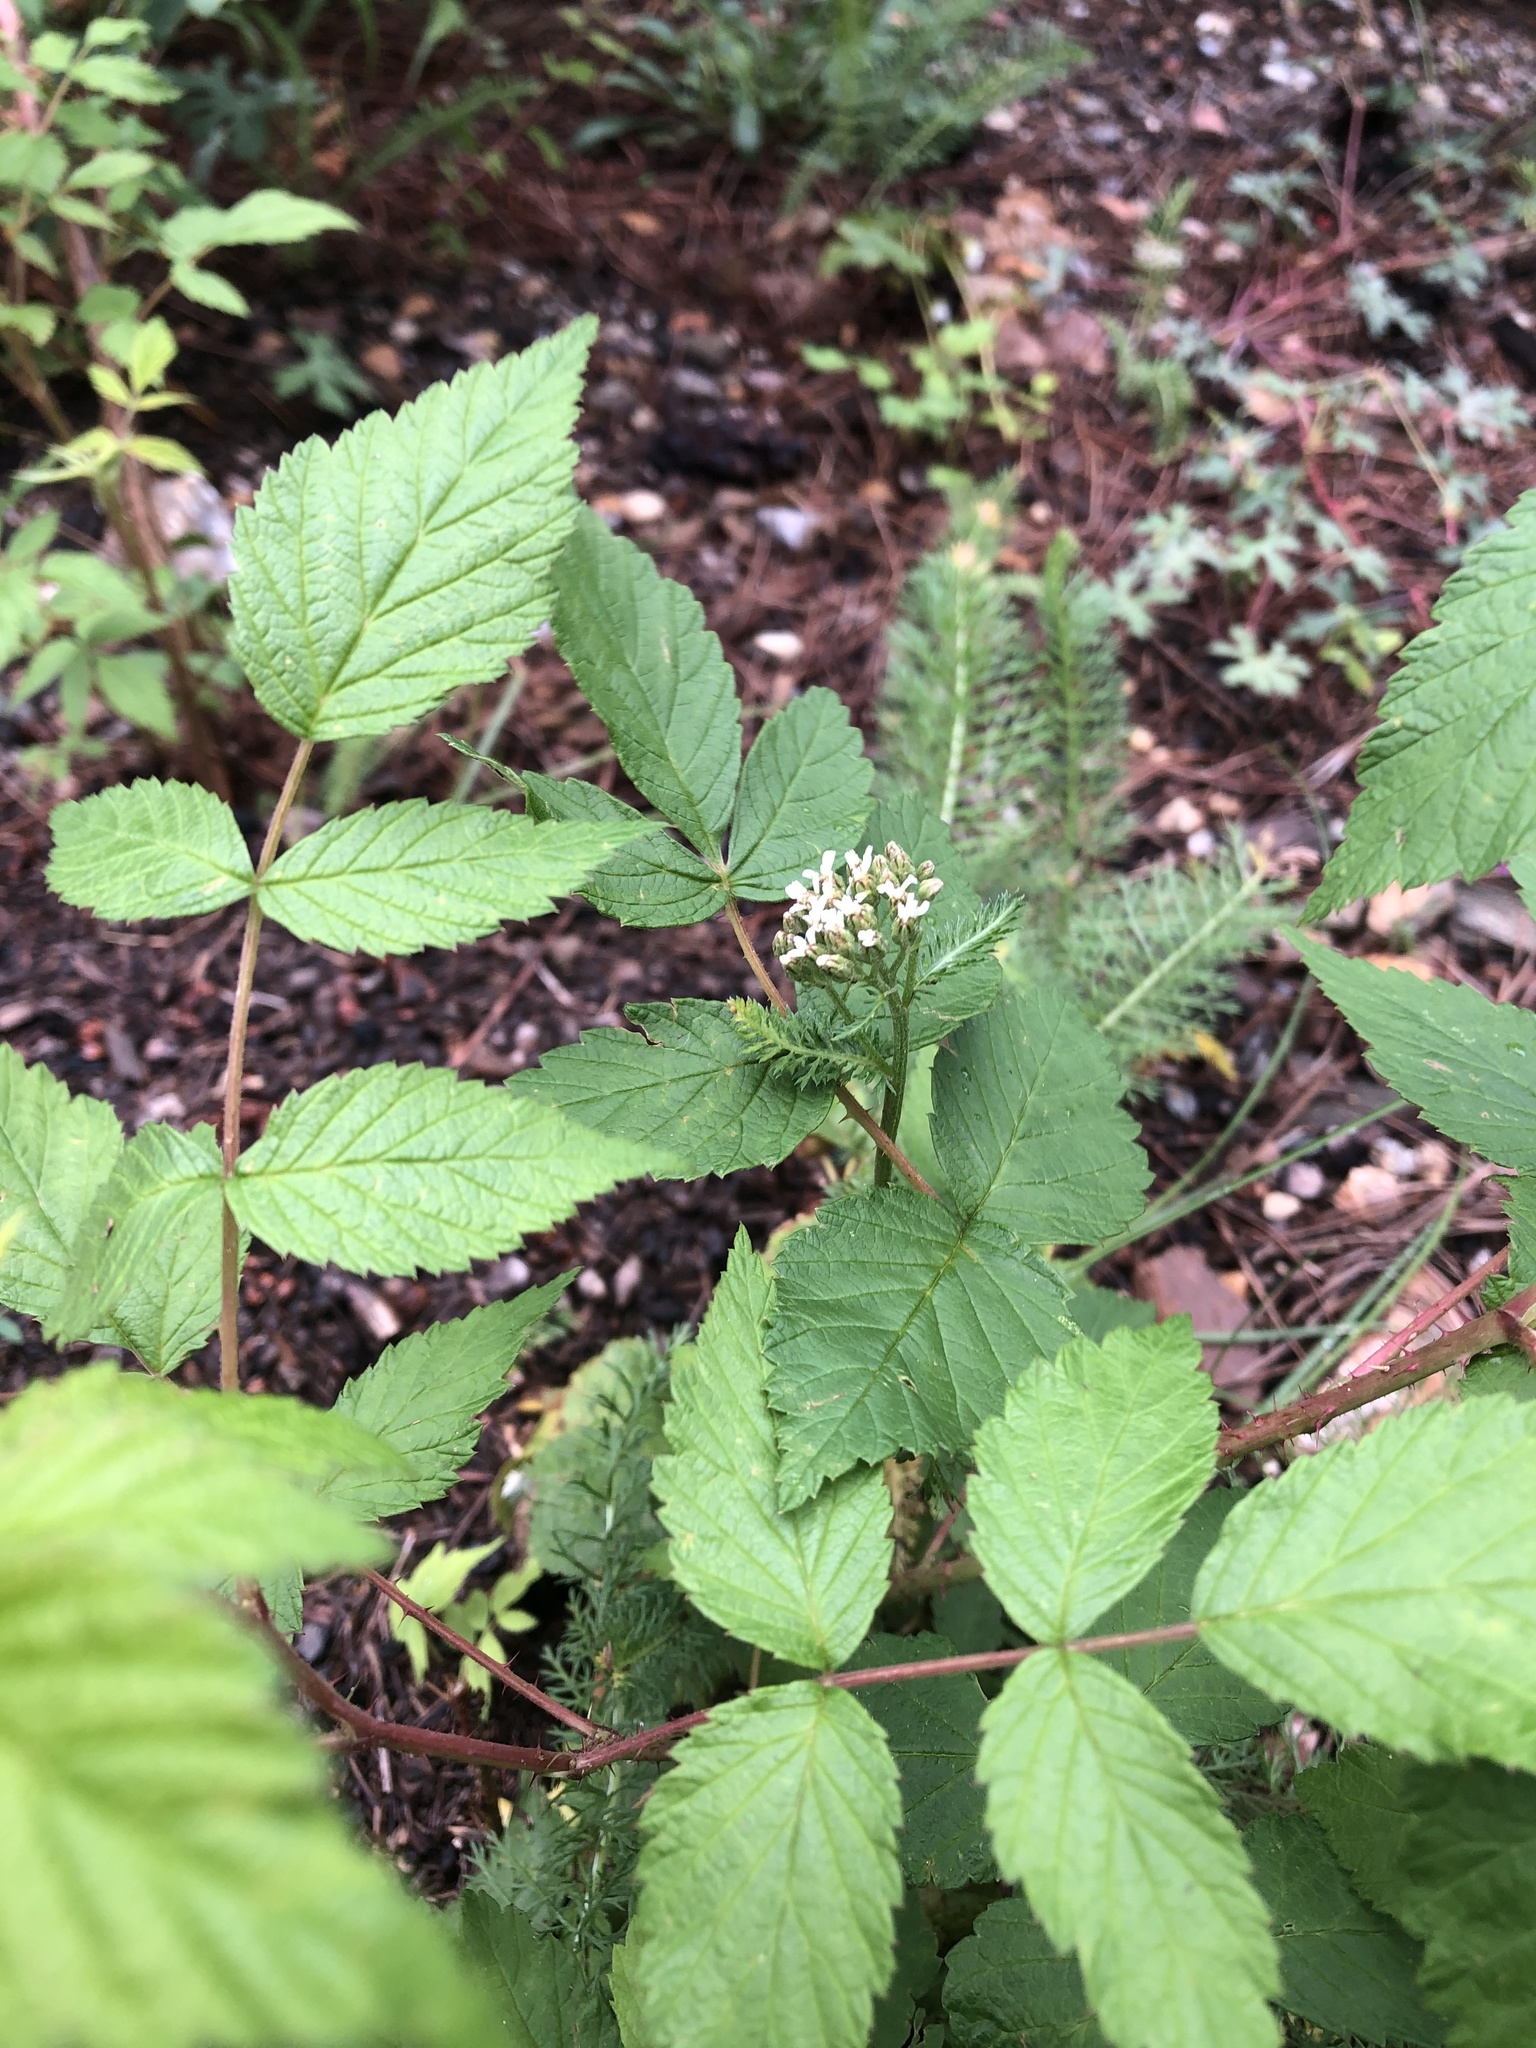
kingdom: Plantae
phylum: Tracheophyta
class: Magnoliopsida
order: Asterales
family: Asteraceae
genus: Achillea
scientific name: Achillea millefolium
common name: Yarrow
